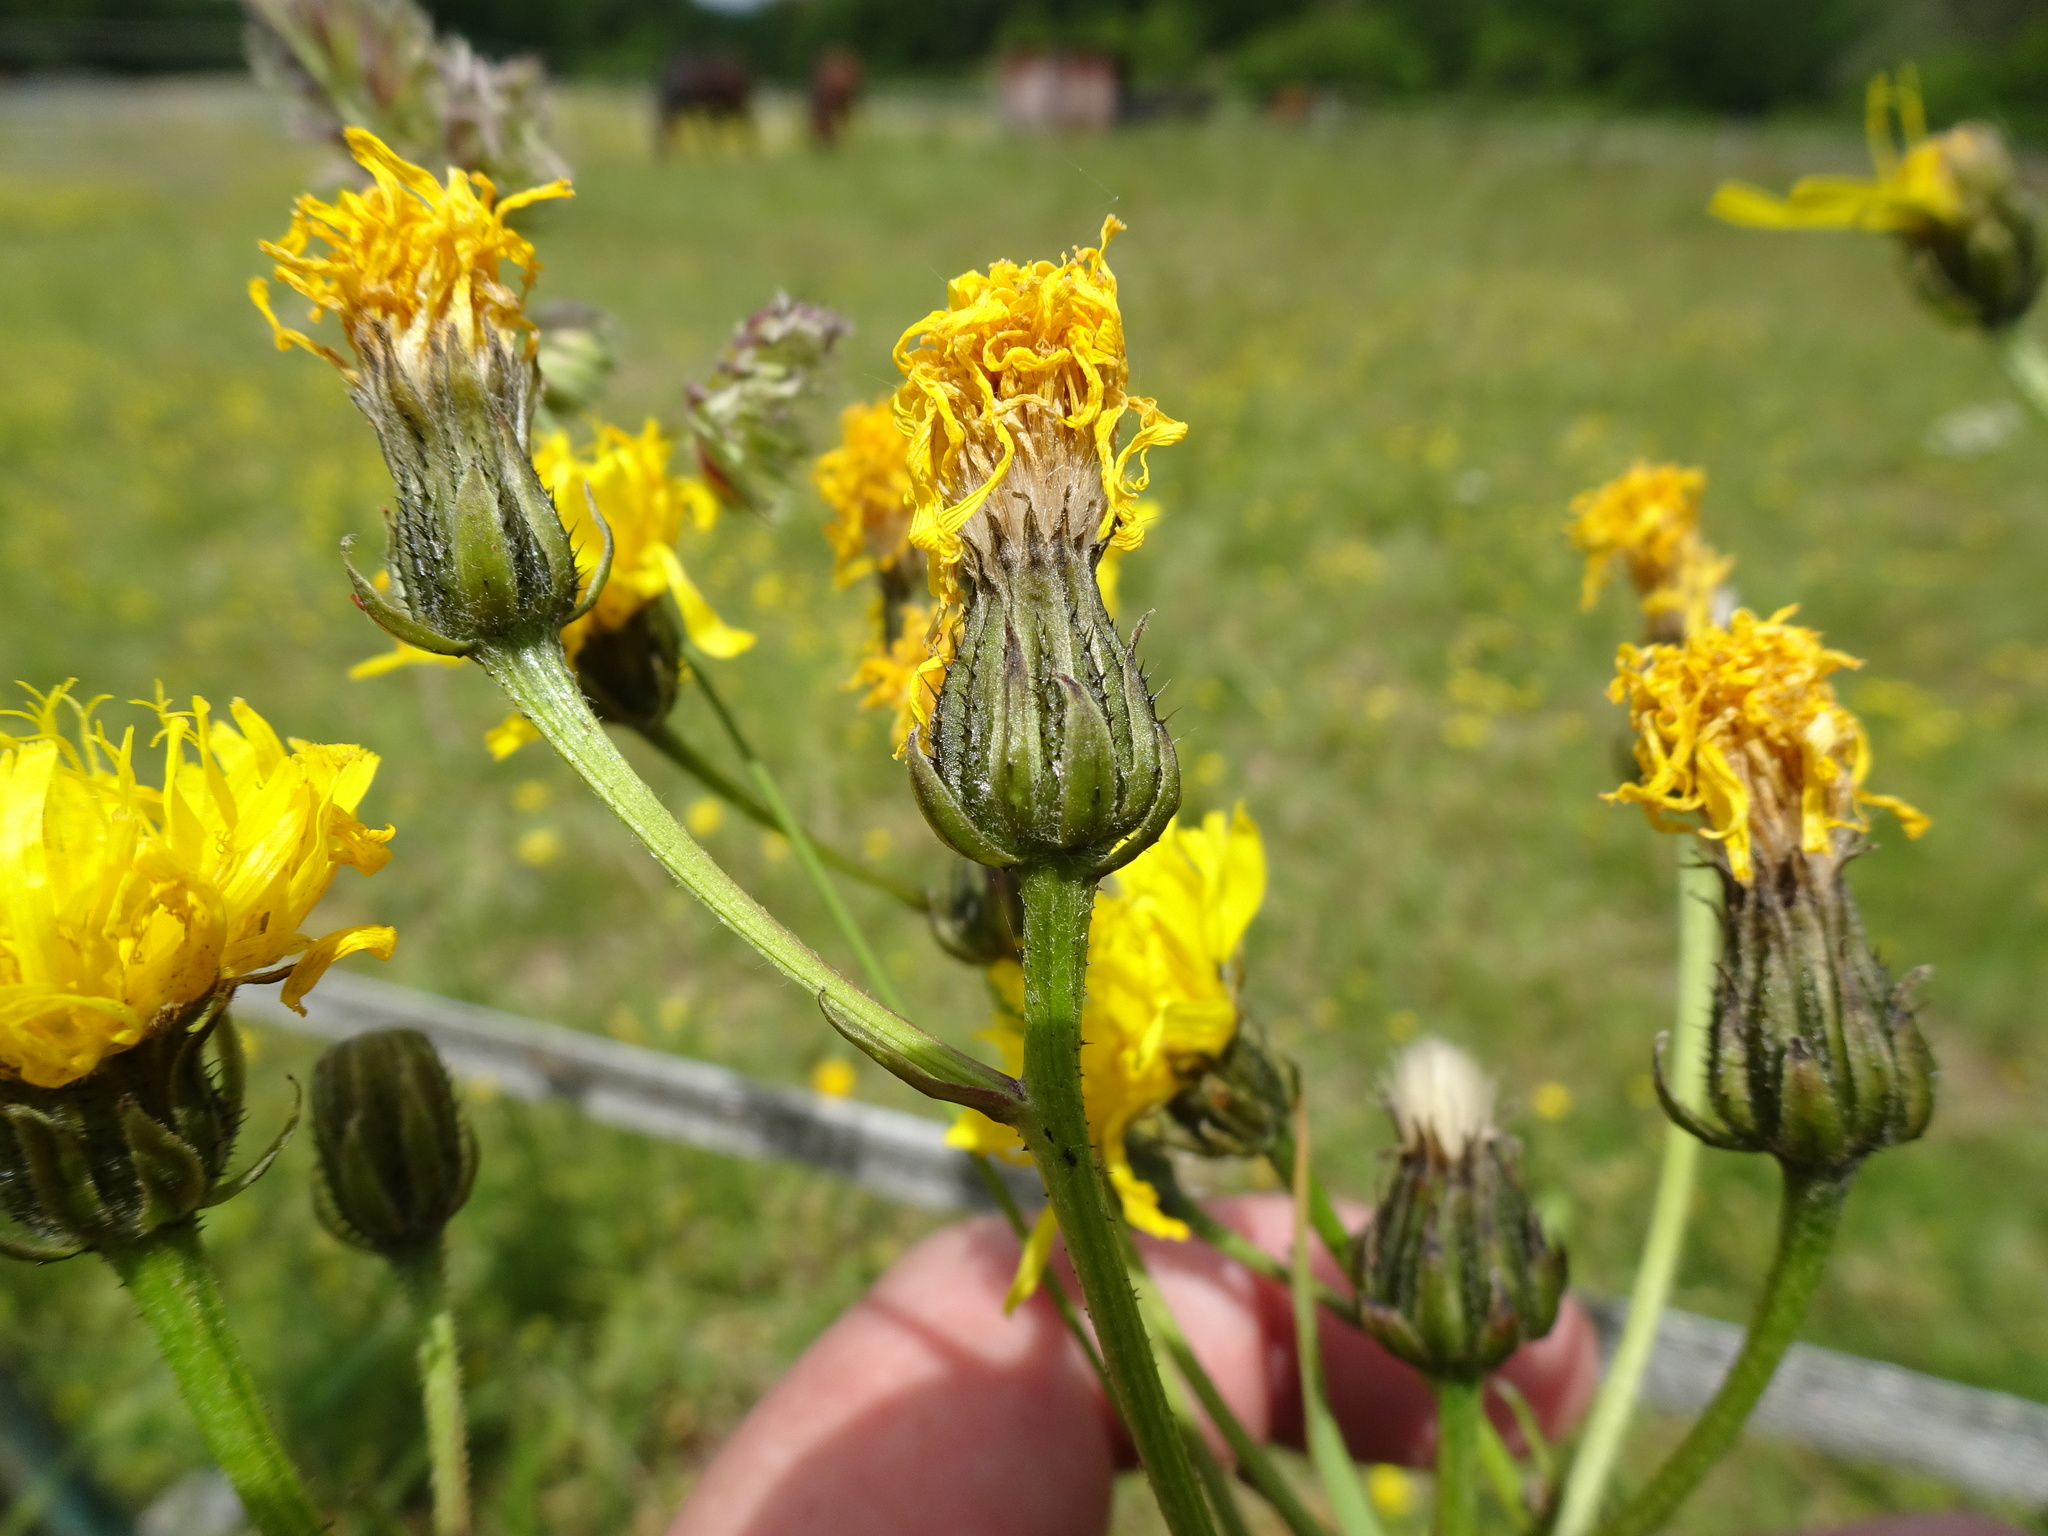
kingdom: Plantae
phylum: Tracheophyta
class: Magnoliopsida
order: Asterales
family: Asteraceae
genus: Crepis
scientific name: Crepis biennis
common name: Rough hawk's-beard
